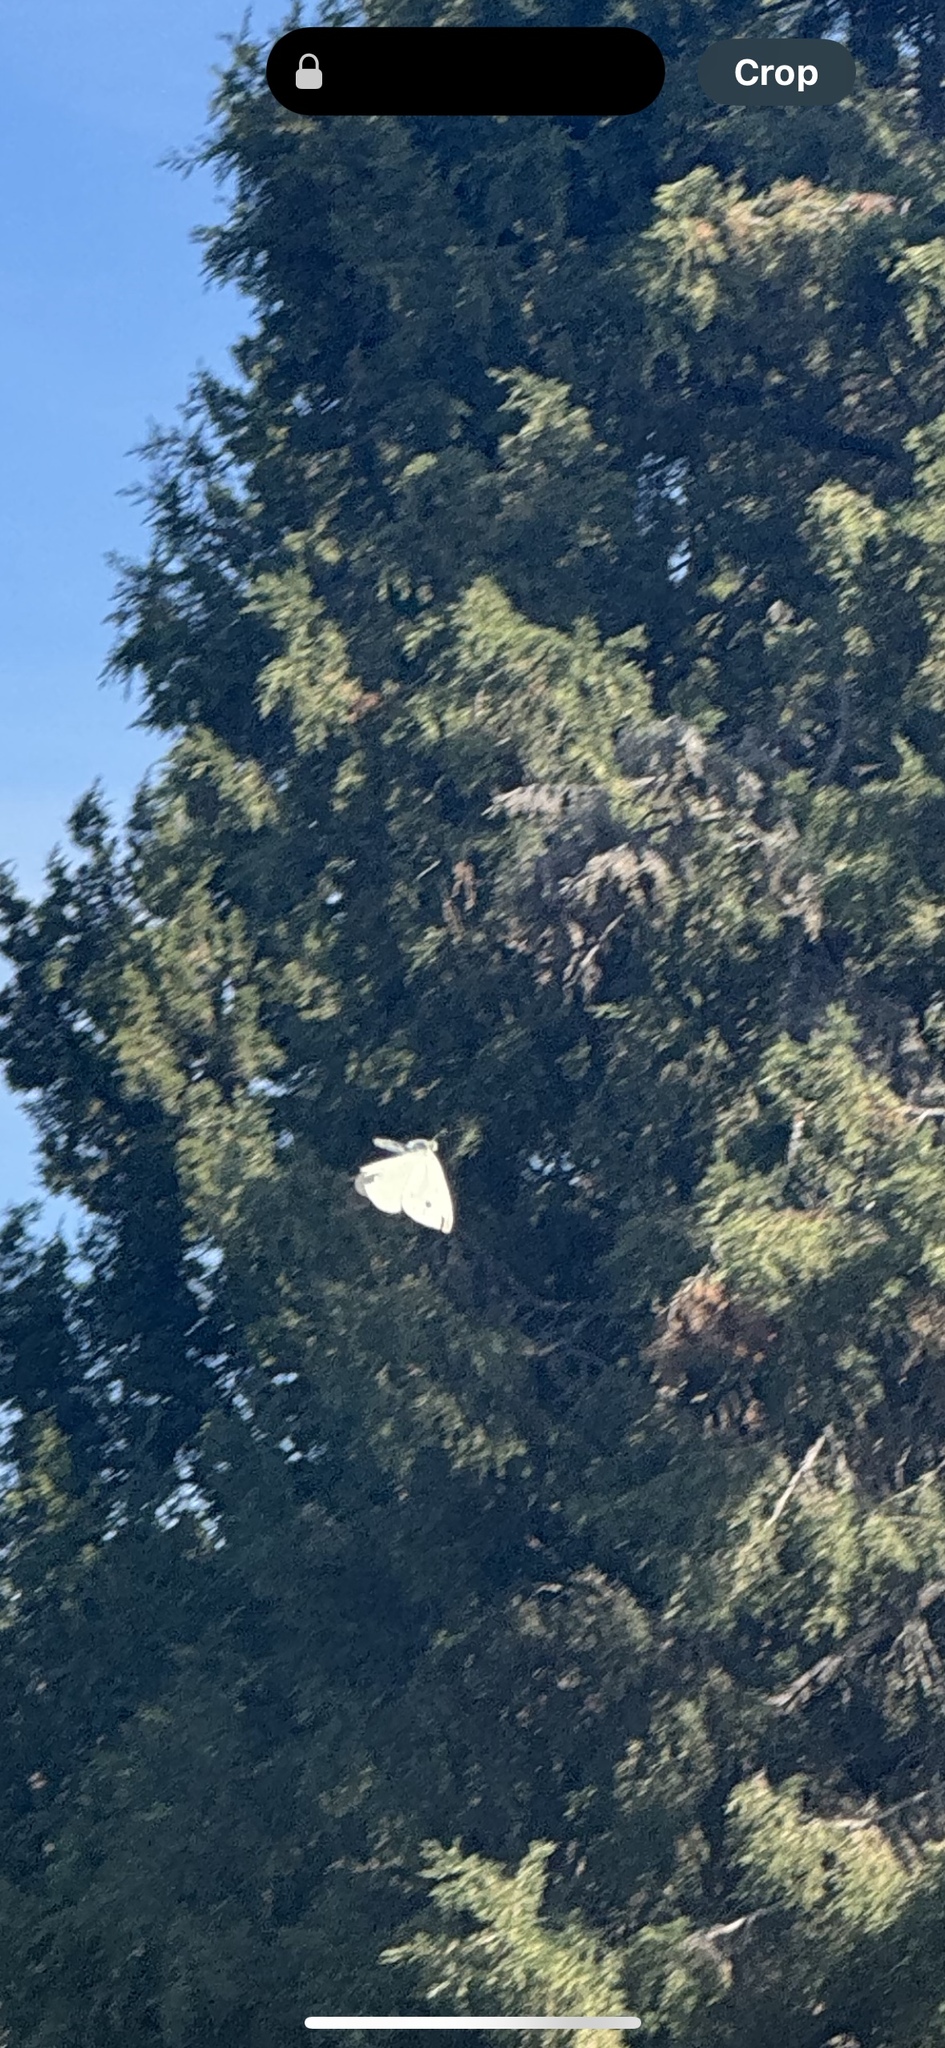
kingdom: Animalia
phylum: Arthropoda
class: Insecta
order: Lepidoptera
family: Pieridae
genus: Pieris
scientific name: Pieris rapae
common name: Small white
